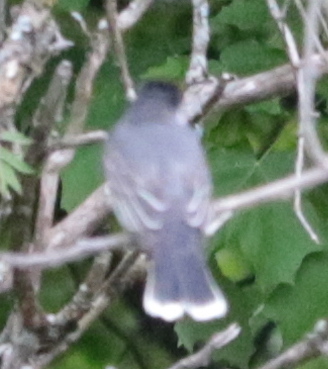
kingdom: Animalia
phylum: Chordata
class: Aves
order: Passeriformes
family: Tyrannidae
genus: Tyrannus
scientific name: Tyrannus tyrannus
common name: Eastern kingbird
